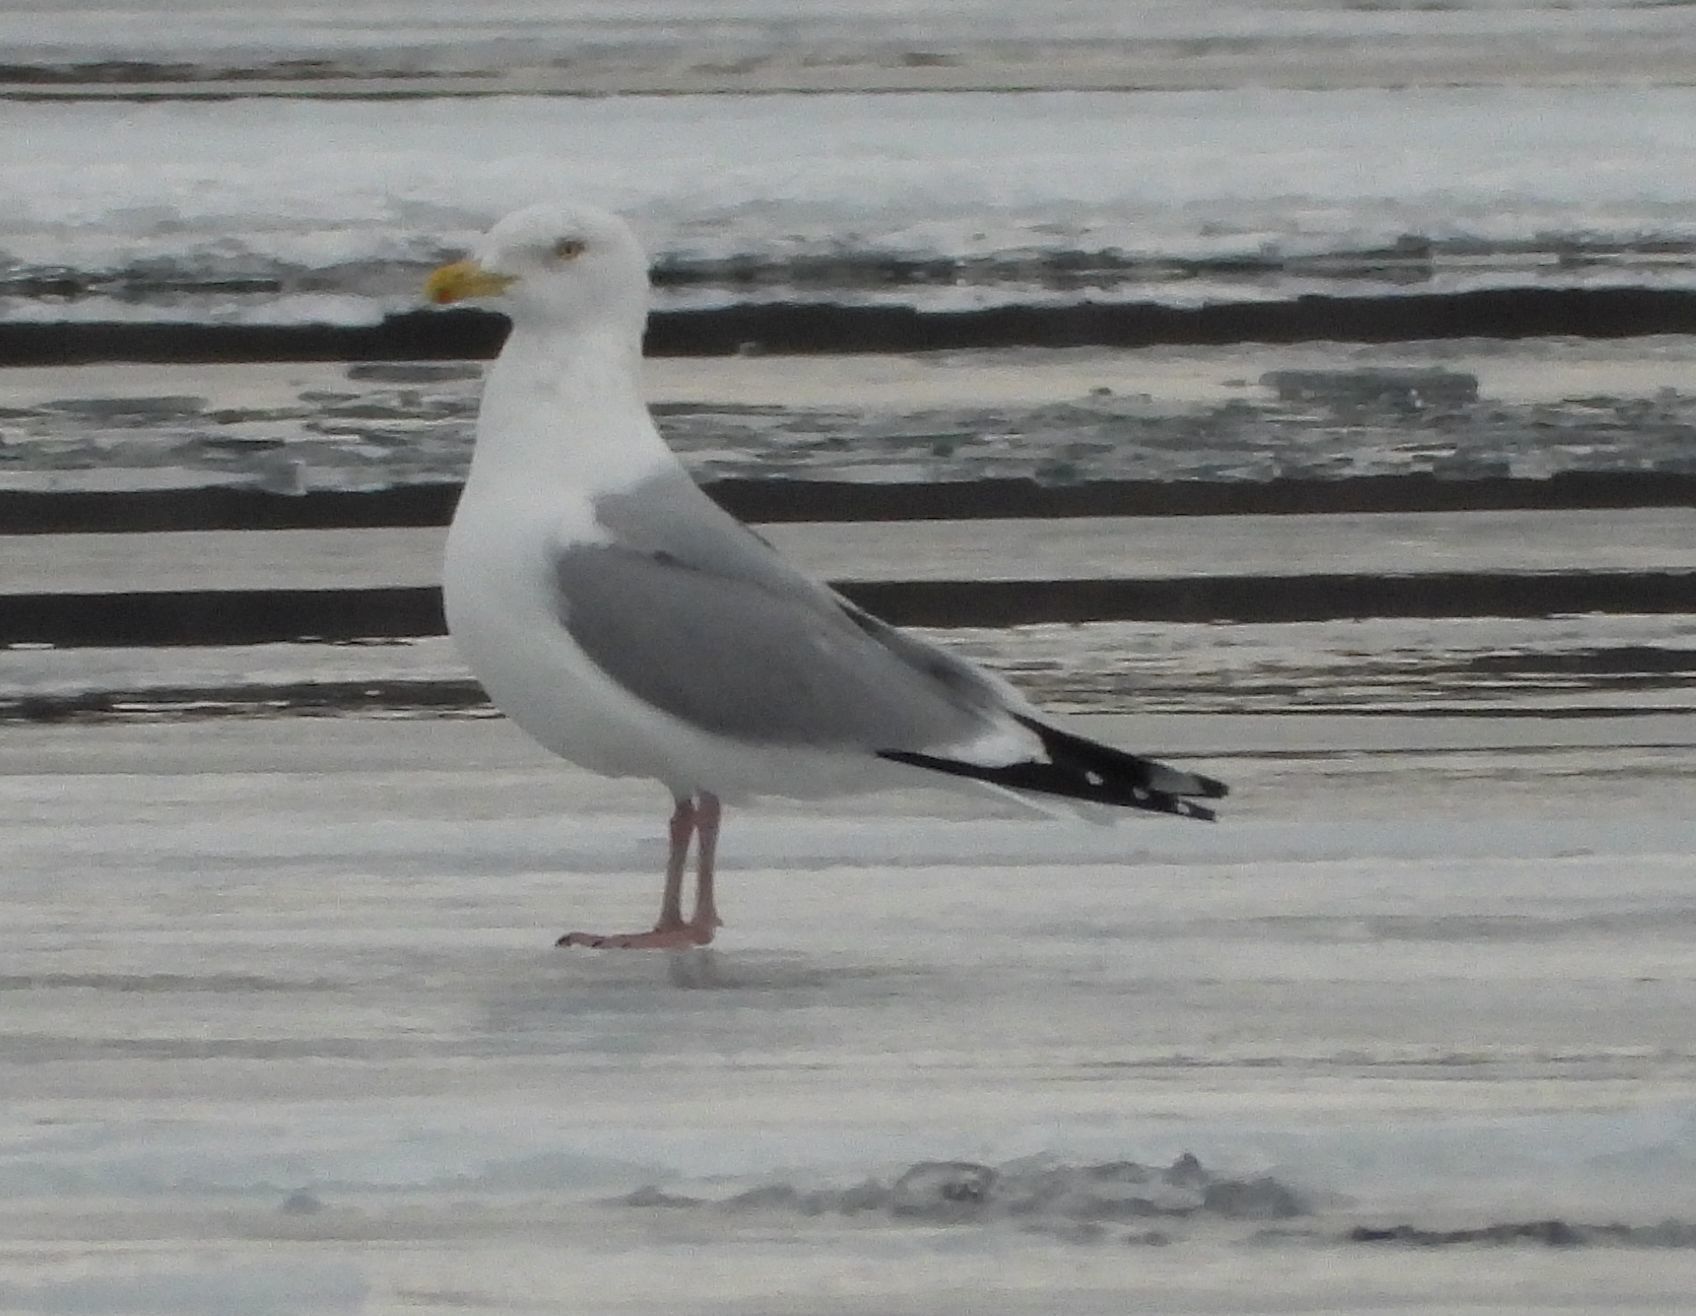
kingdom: Animalia
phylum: Chordata
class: Aves
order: Charadriiformes
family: Laridae
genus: Larus
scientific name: Larus argentatus
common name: Herring gull
